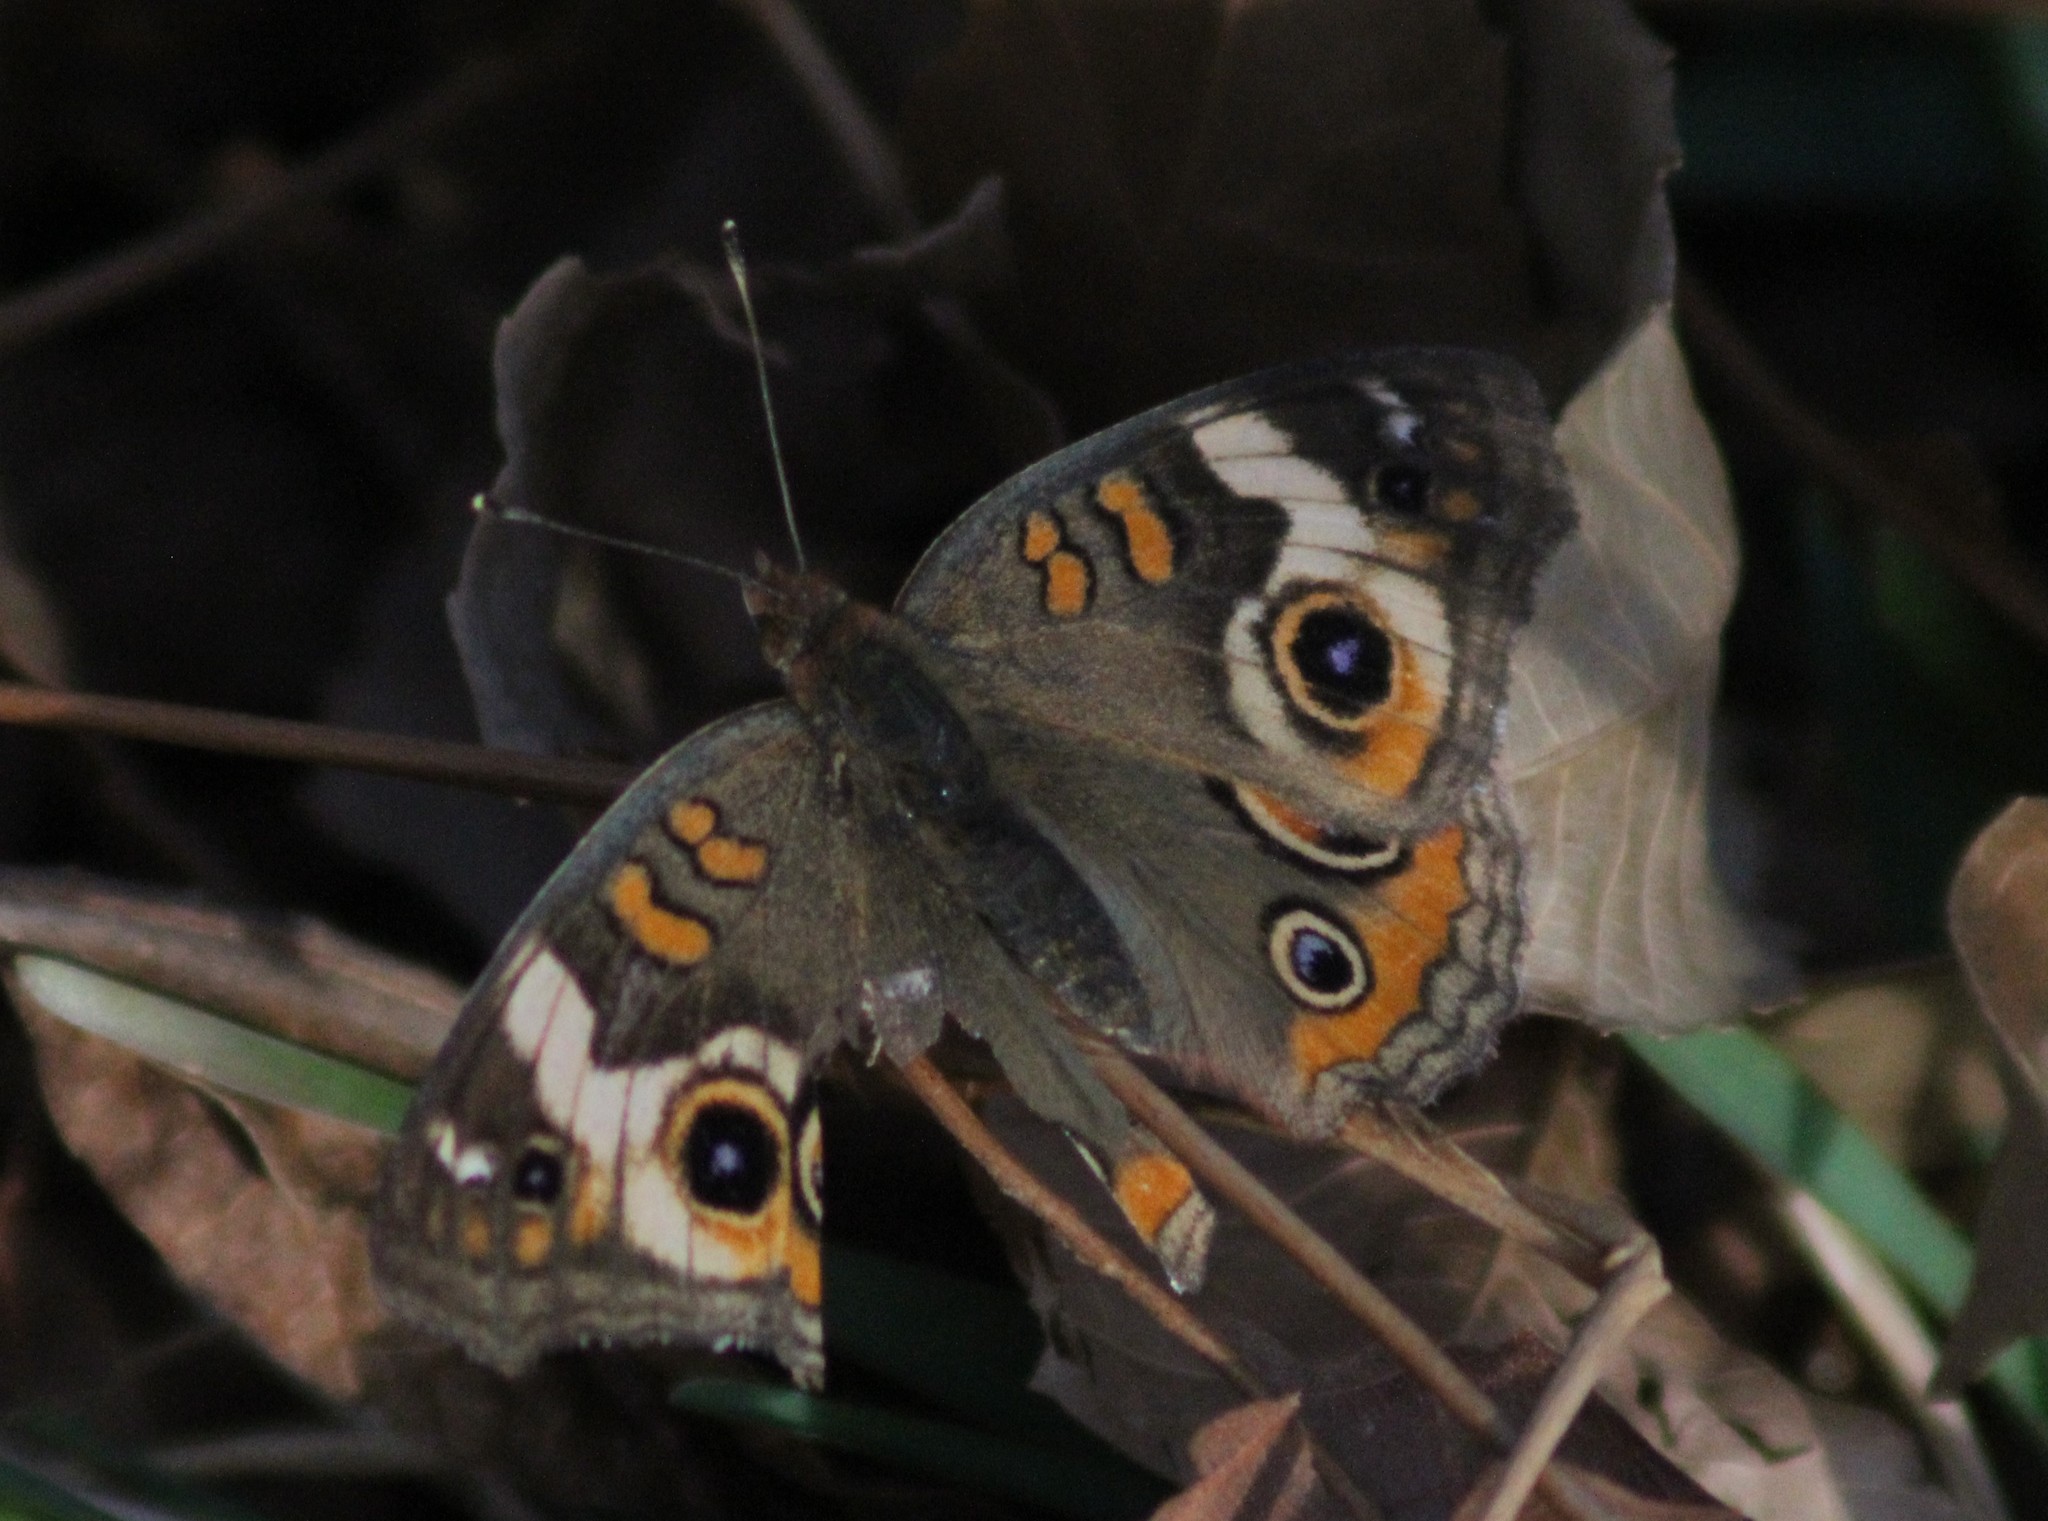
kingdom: Animalia
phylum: Arthropoda
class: Insecta
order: Lepidoptera
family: Nymphalidae
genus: Junonia
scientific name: Junonia coenia
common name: Common buckeye
